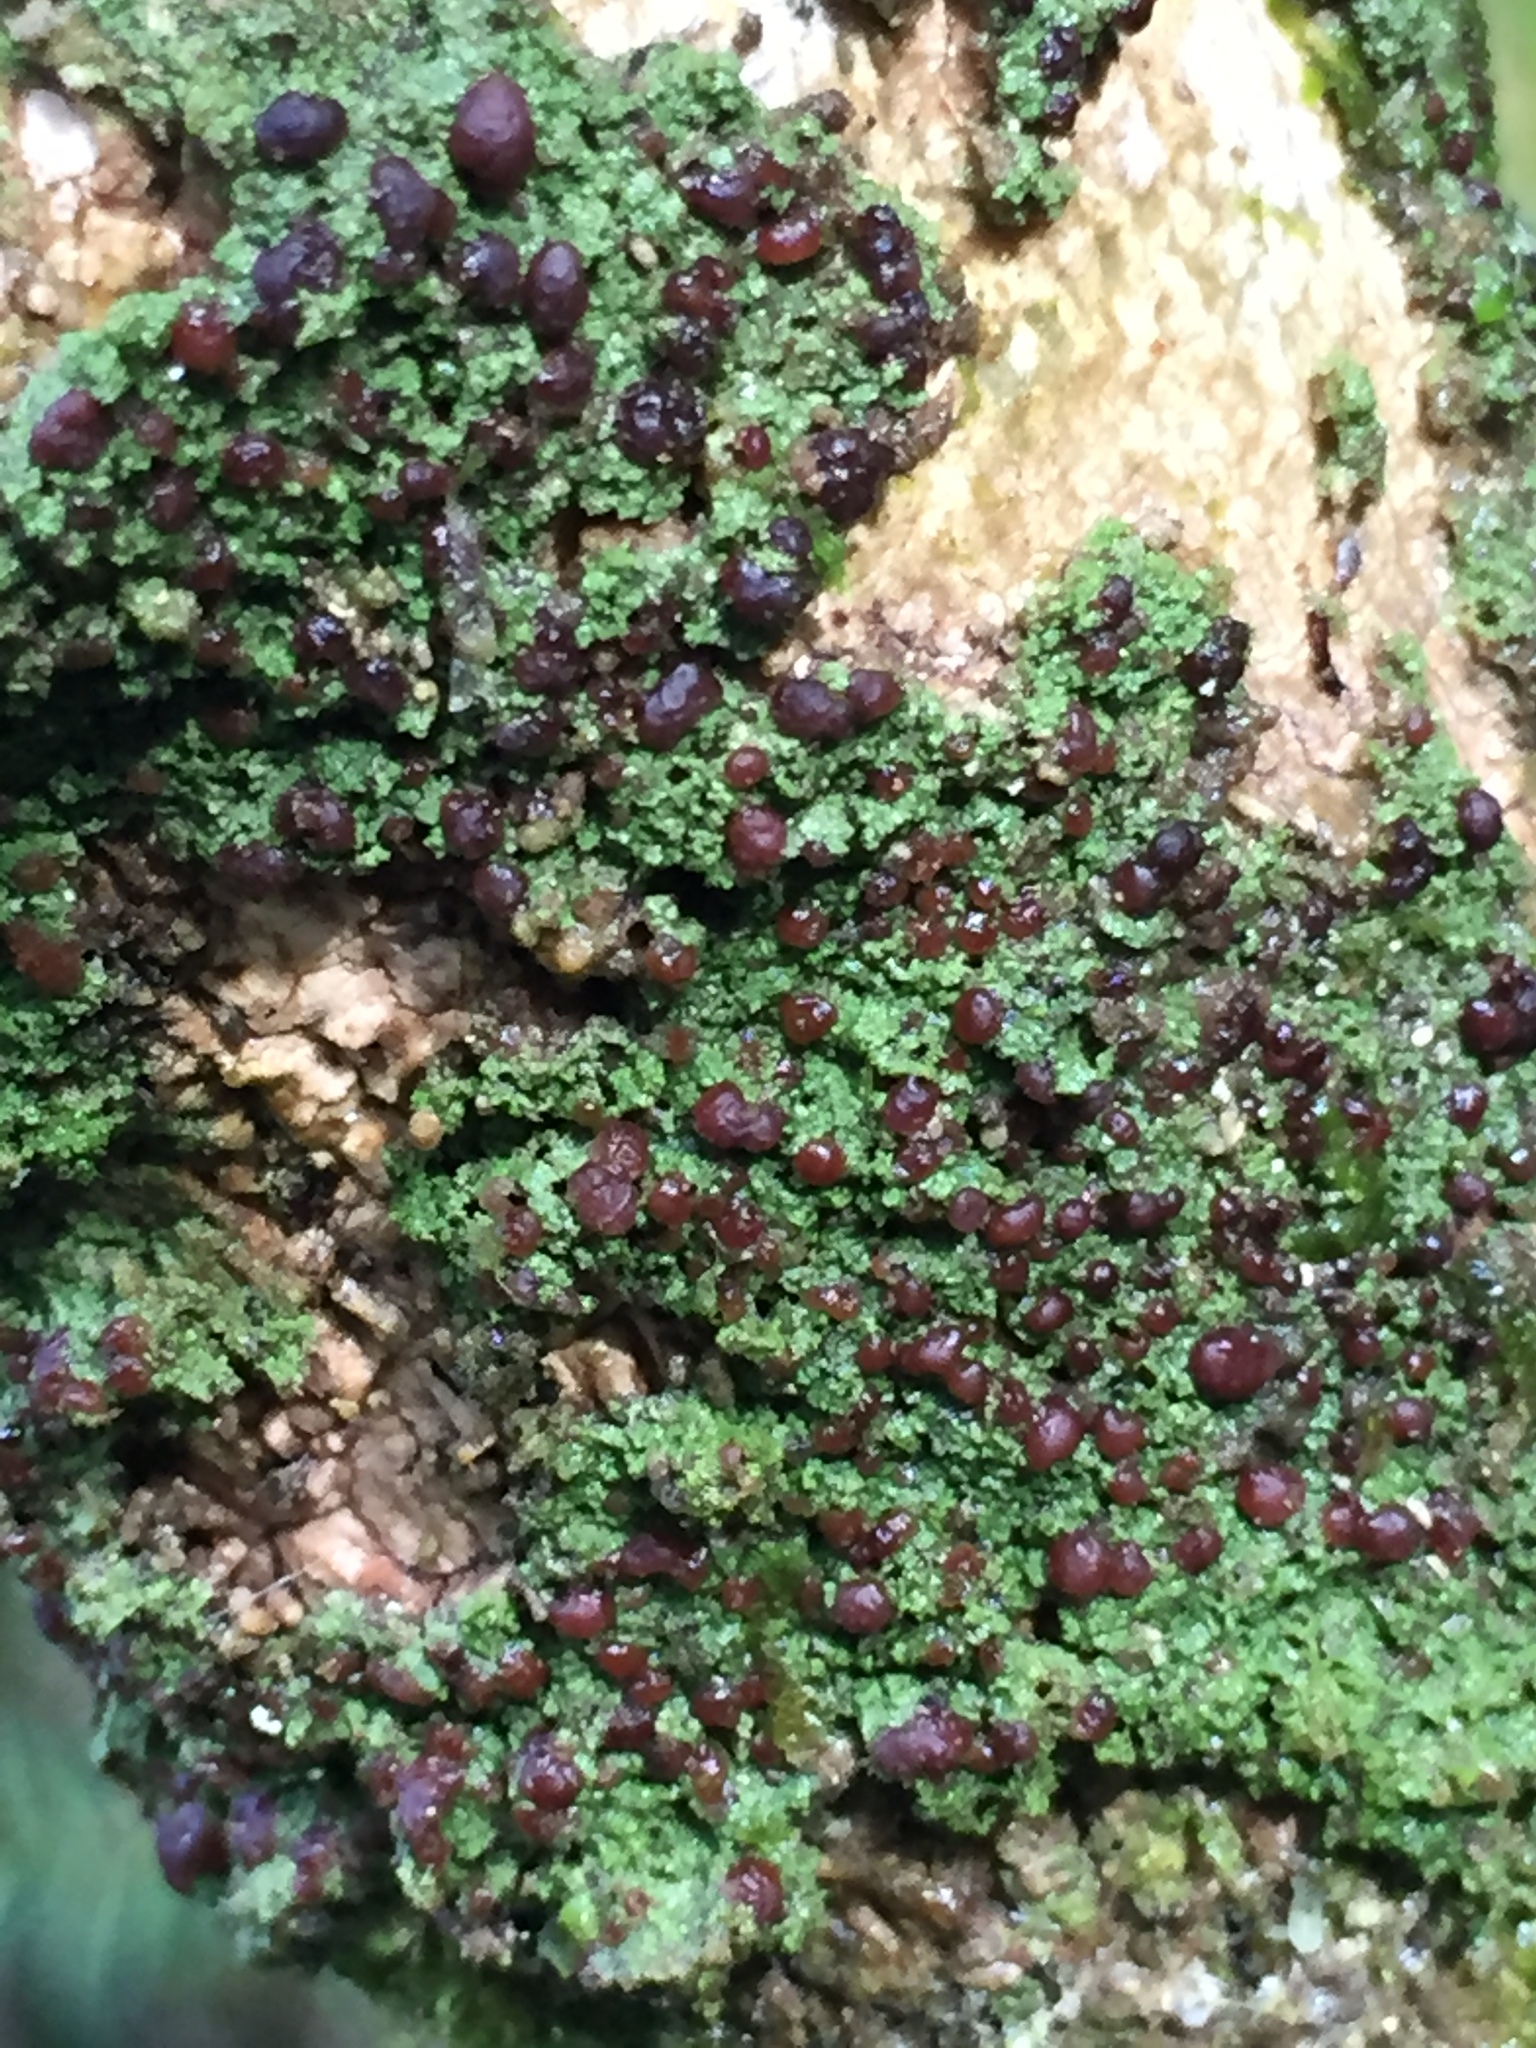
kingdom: Fungi
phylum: Ascomycota
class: Lecanoromycetes
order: Lecanorales
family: Byssolomataceae
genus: Micarea
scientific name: Micarea prasina
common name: Green dot lichen
